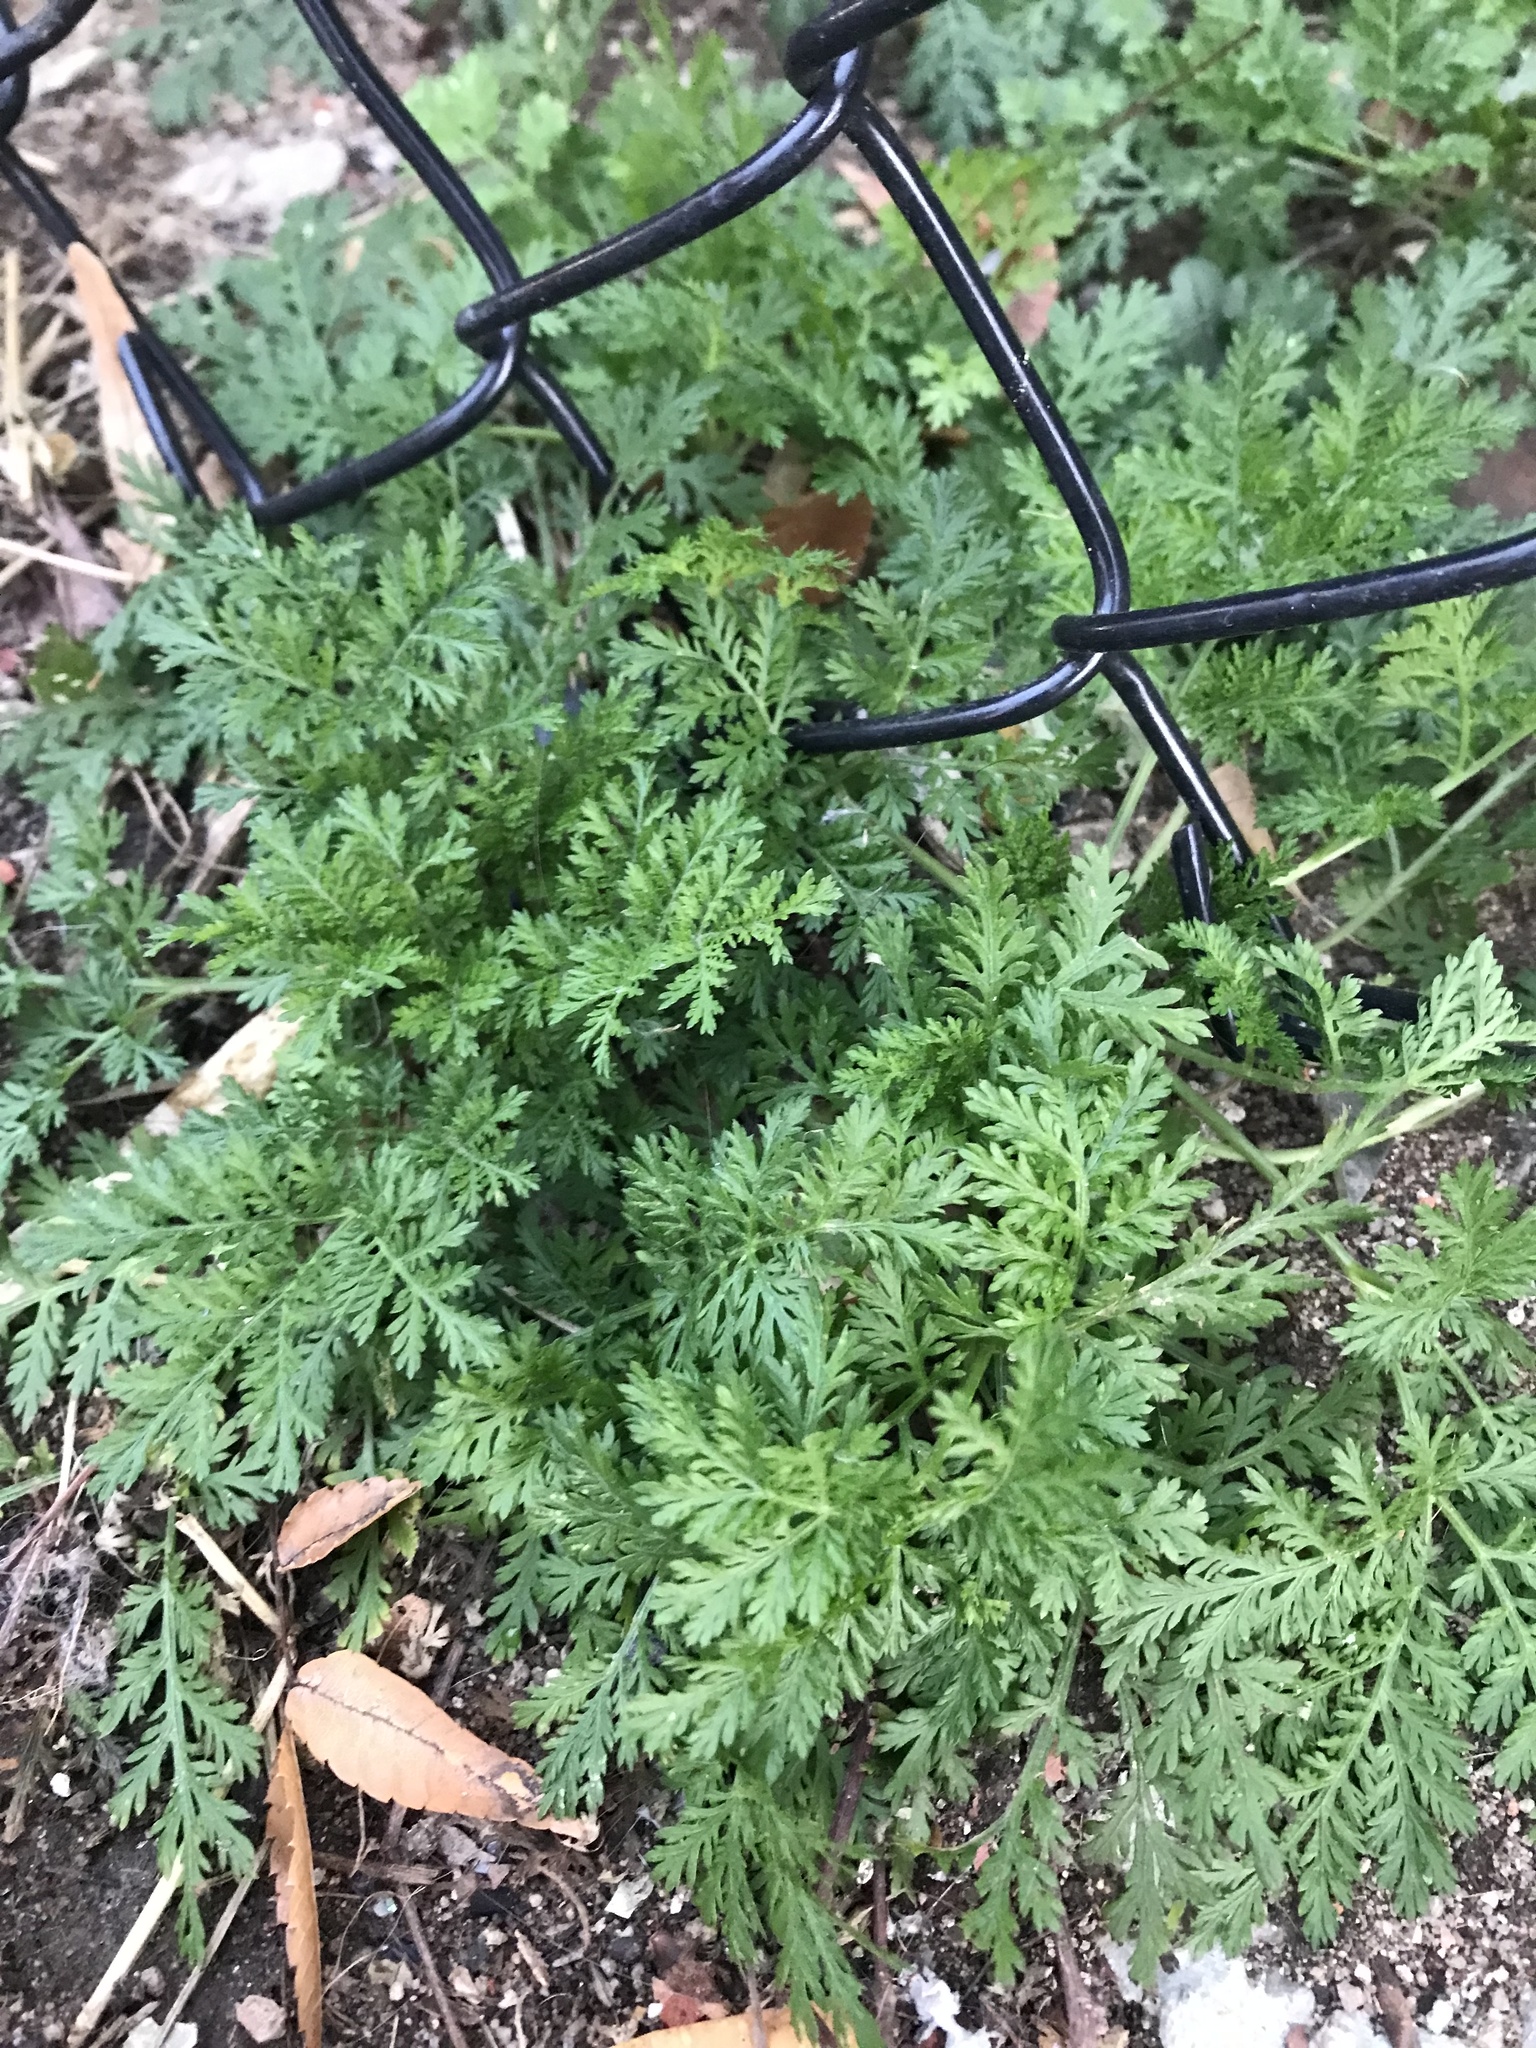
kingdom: Plantae
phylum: Tracheophyta
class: Magnoliopsida
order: Asterales
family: Asteraceae
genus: Artemisia
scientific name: Artemisia annua
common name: Sweet sagewort
